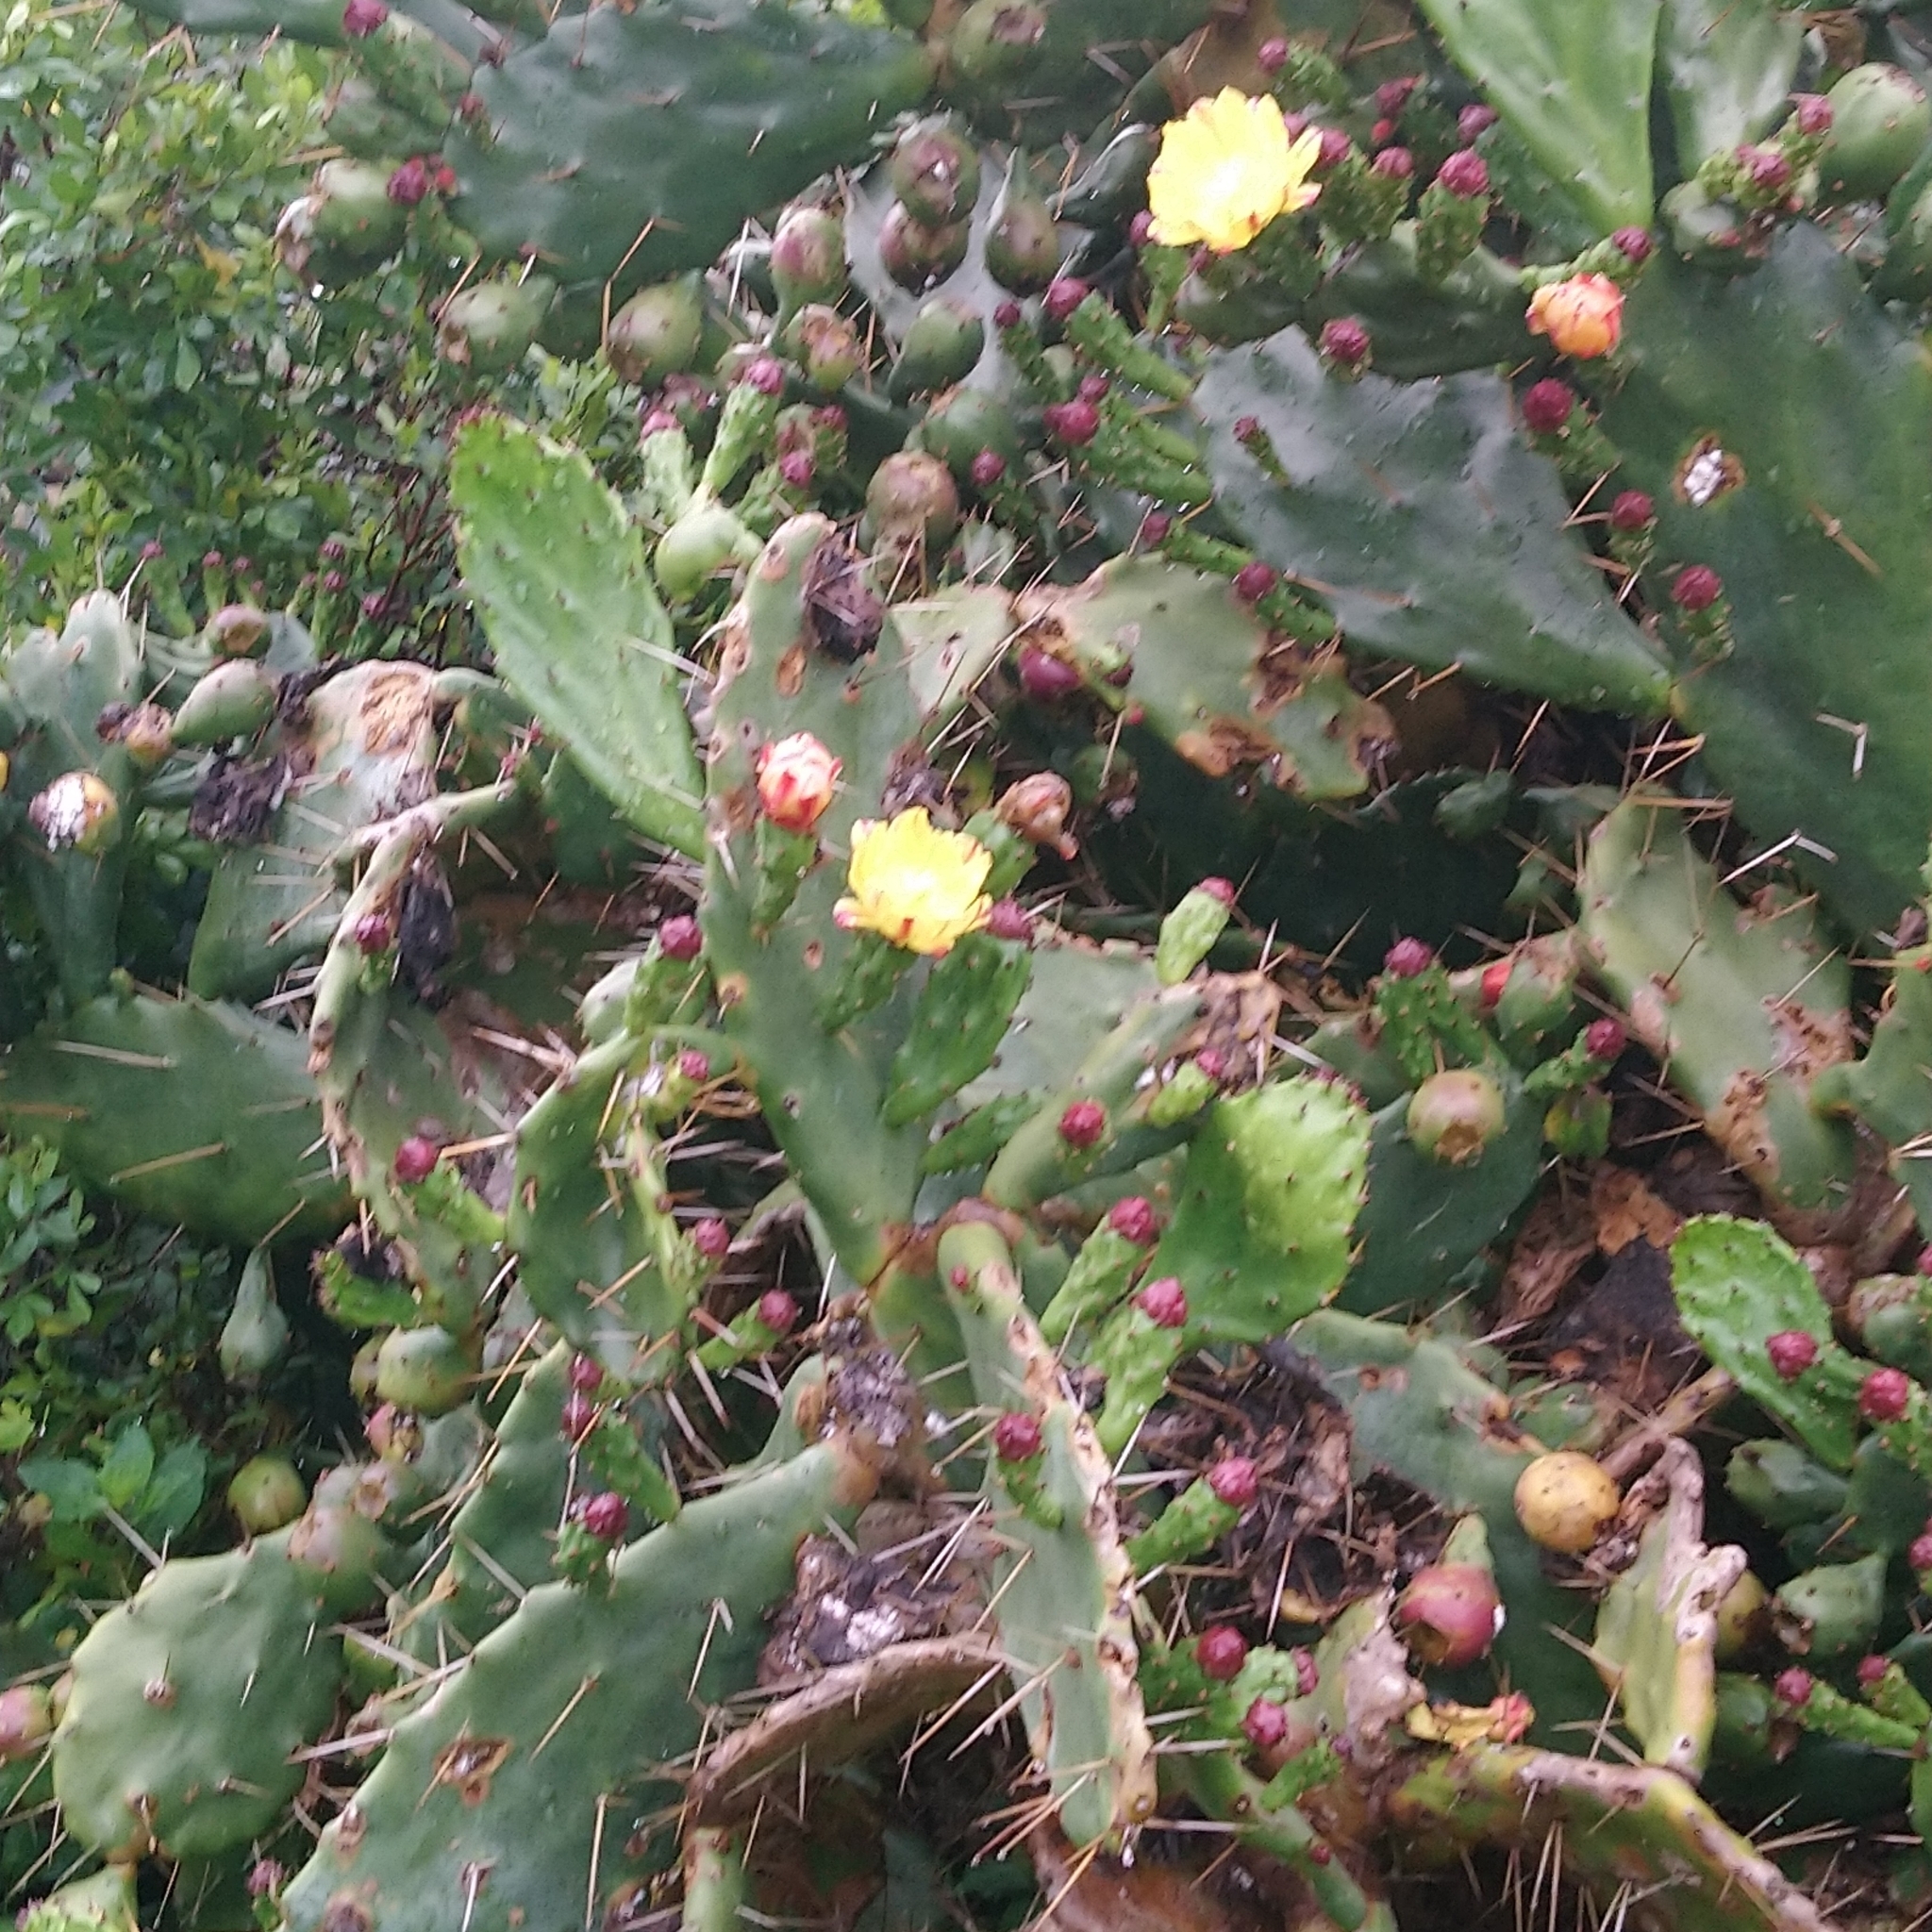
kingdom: Plantae
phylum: Tracheophyta
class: Magnoliopsida
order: Caryophyllales
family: Cactaceae
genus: Opuntia
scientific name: Opuntia monacantha
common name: Common pricklypear
